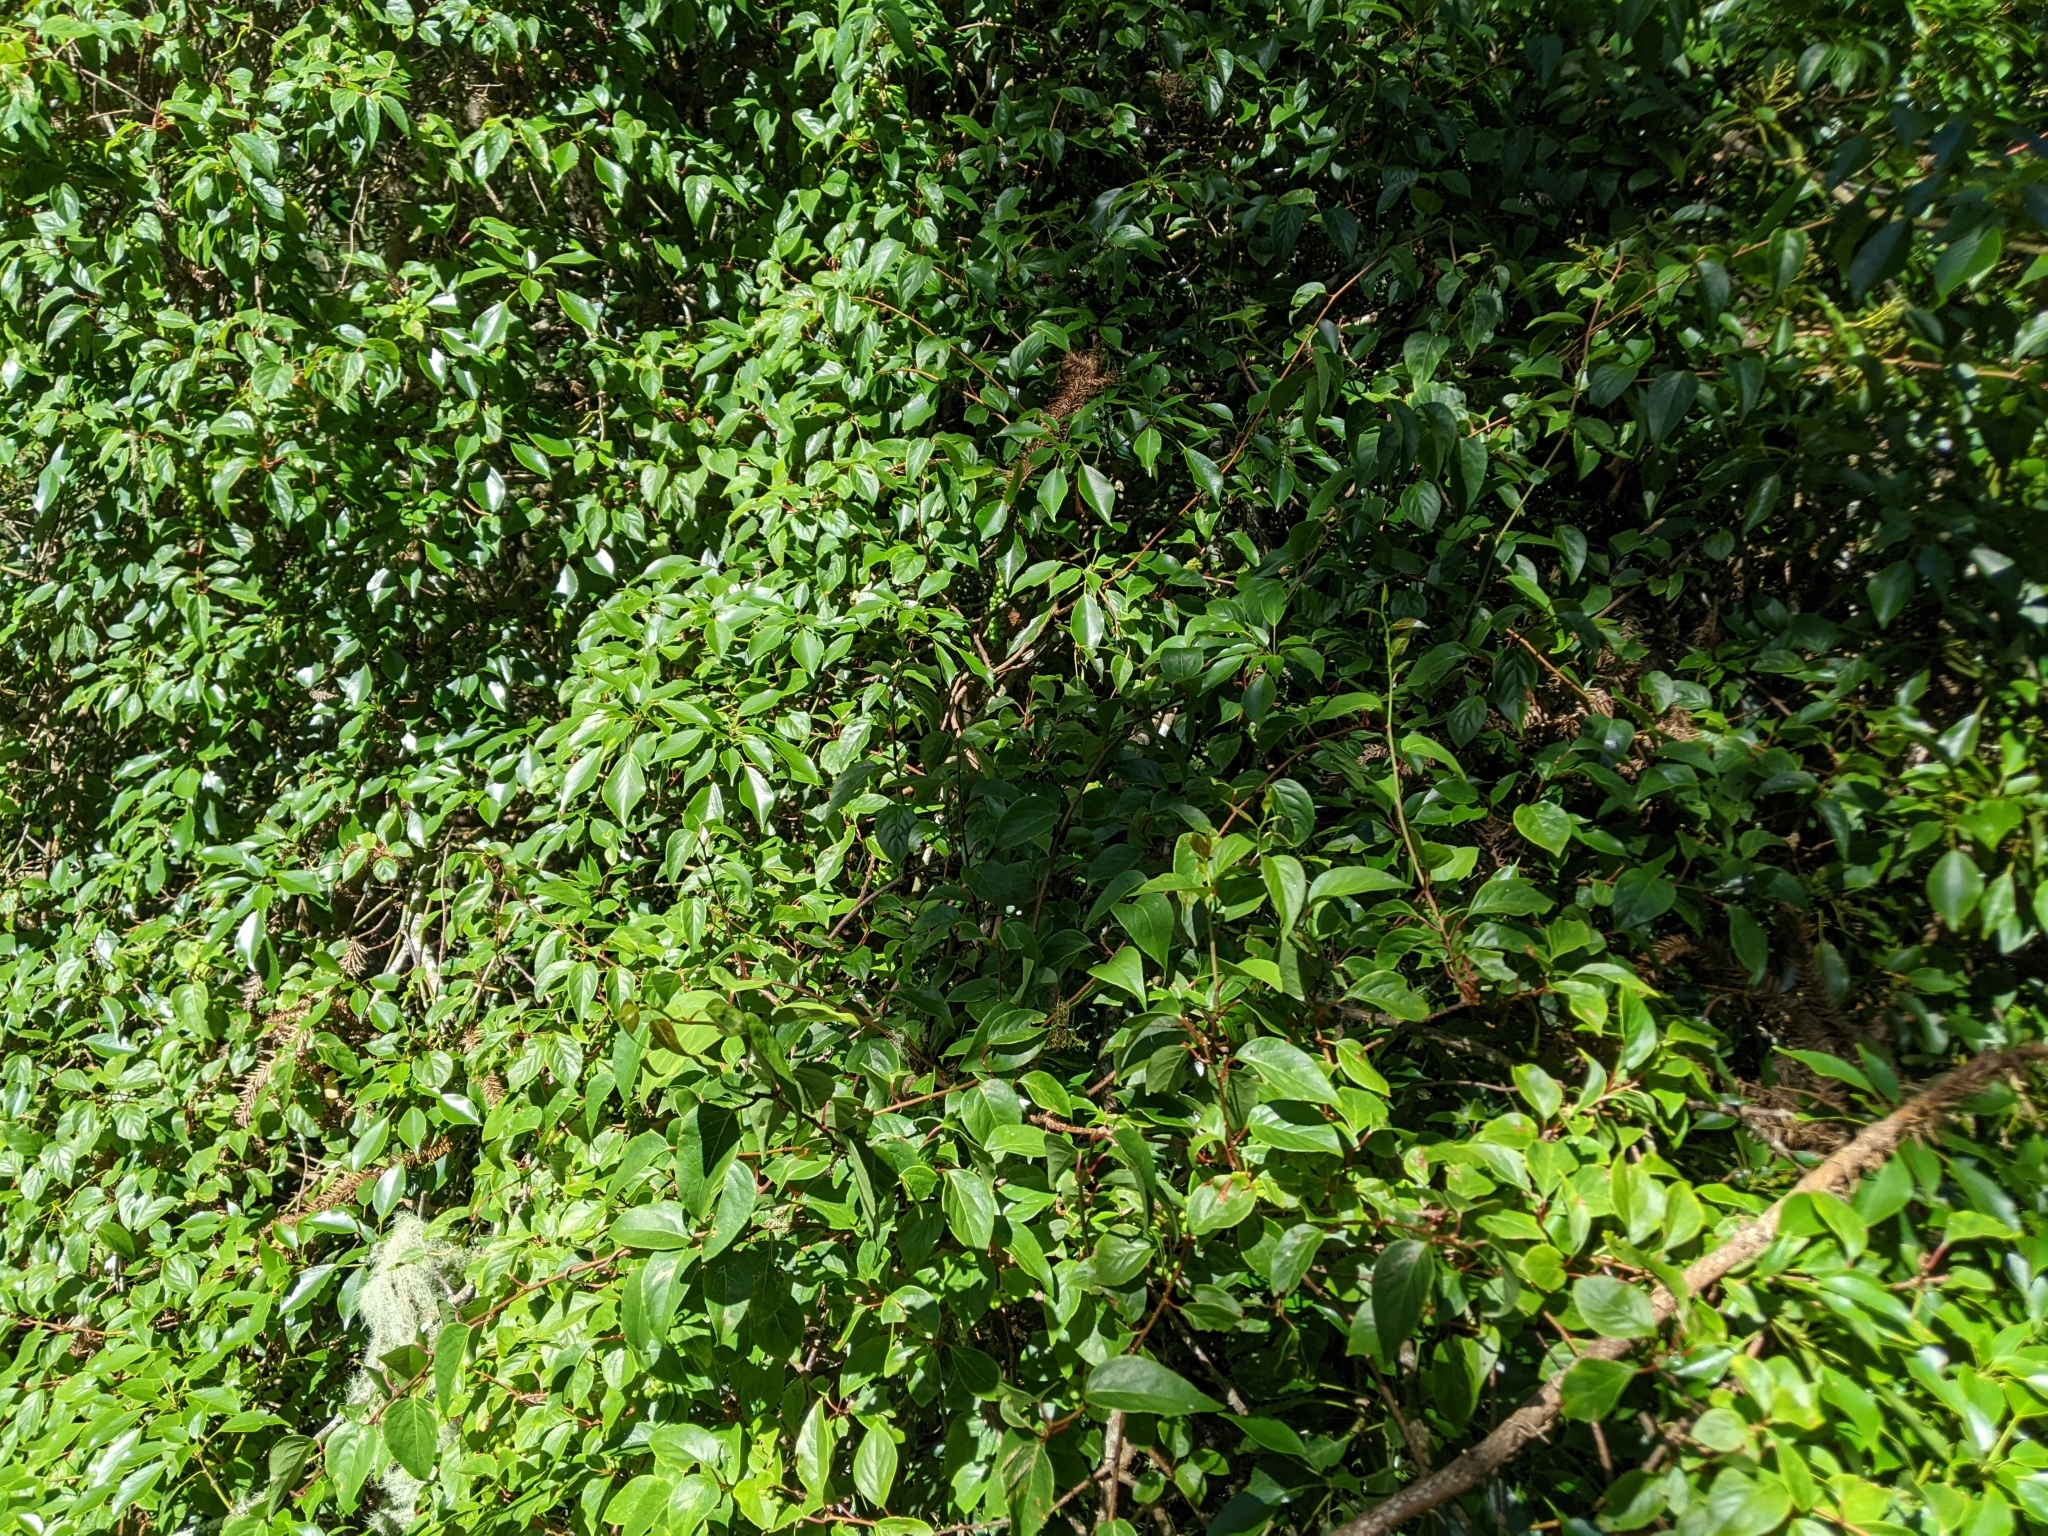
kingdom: Plantae
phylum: Tracheophyta
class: Magnoliopsida
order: Trochodendrales
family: Trochodendraceae
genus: Trochodendron
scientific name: Trochodendron aralioides
